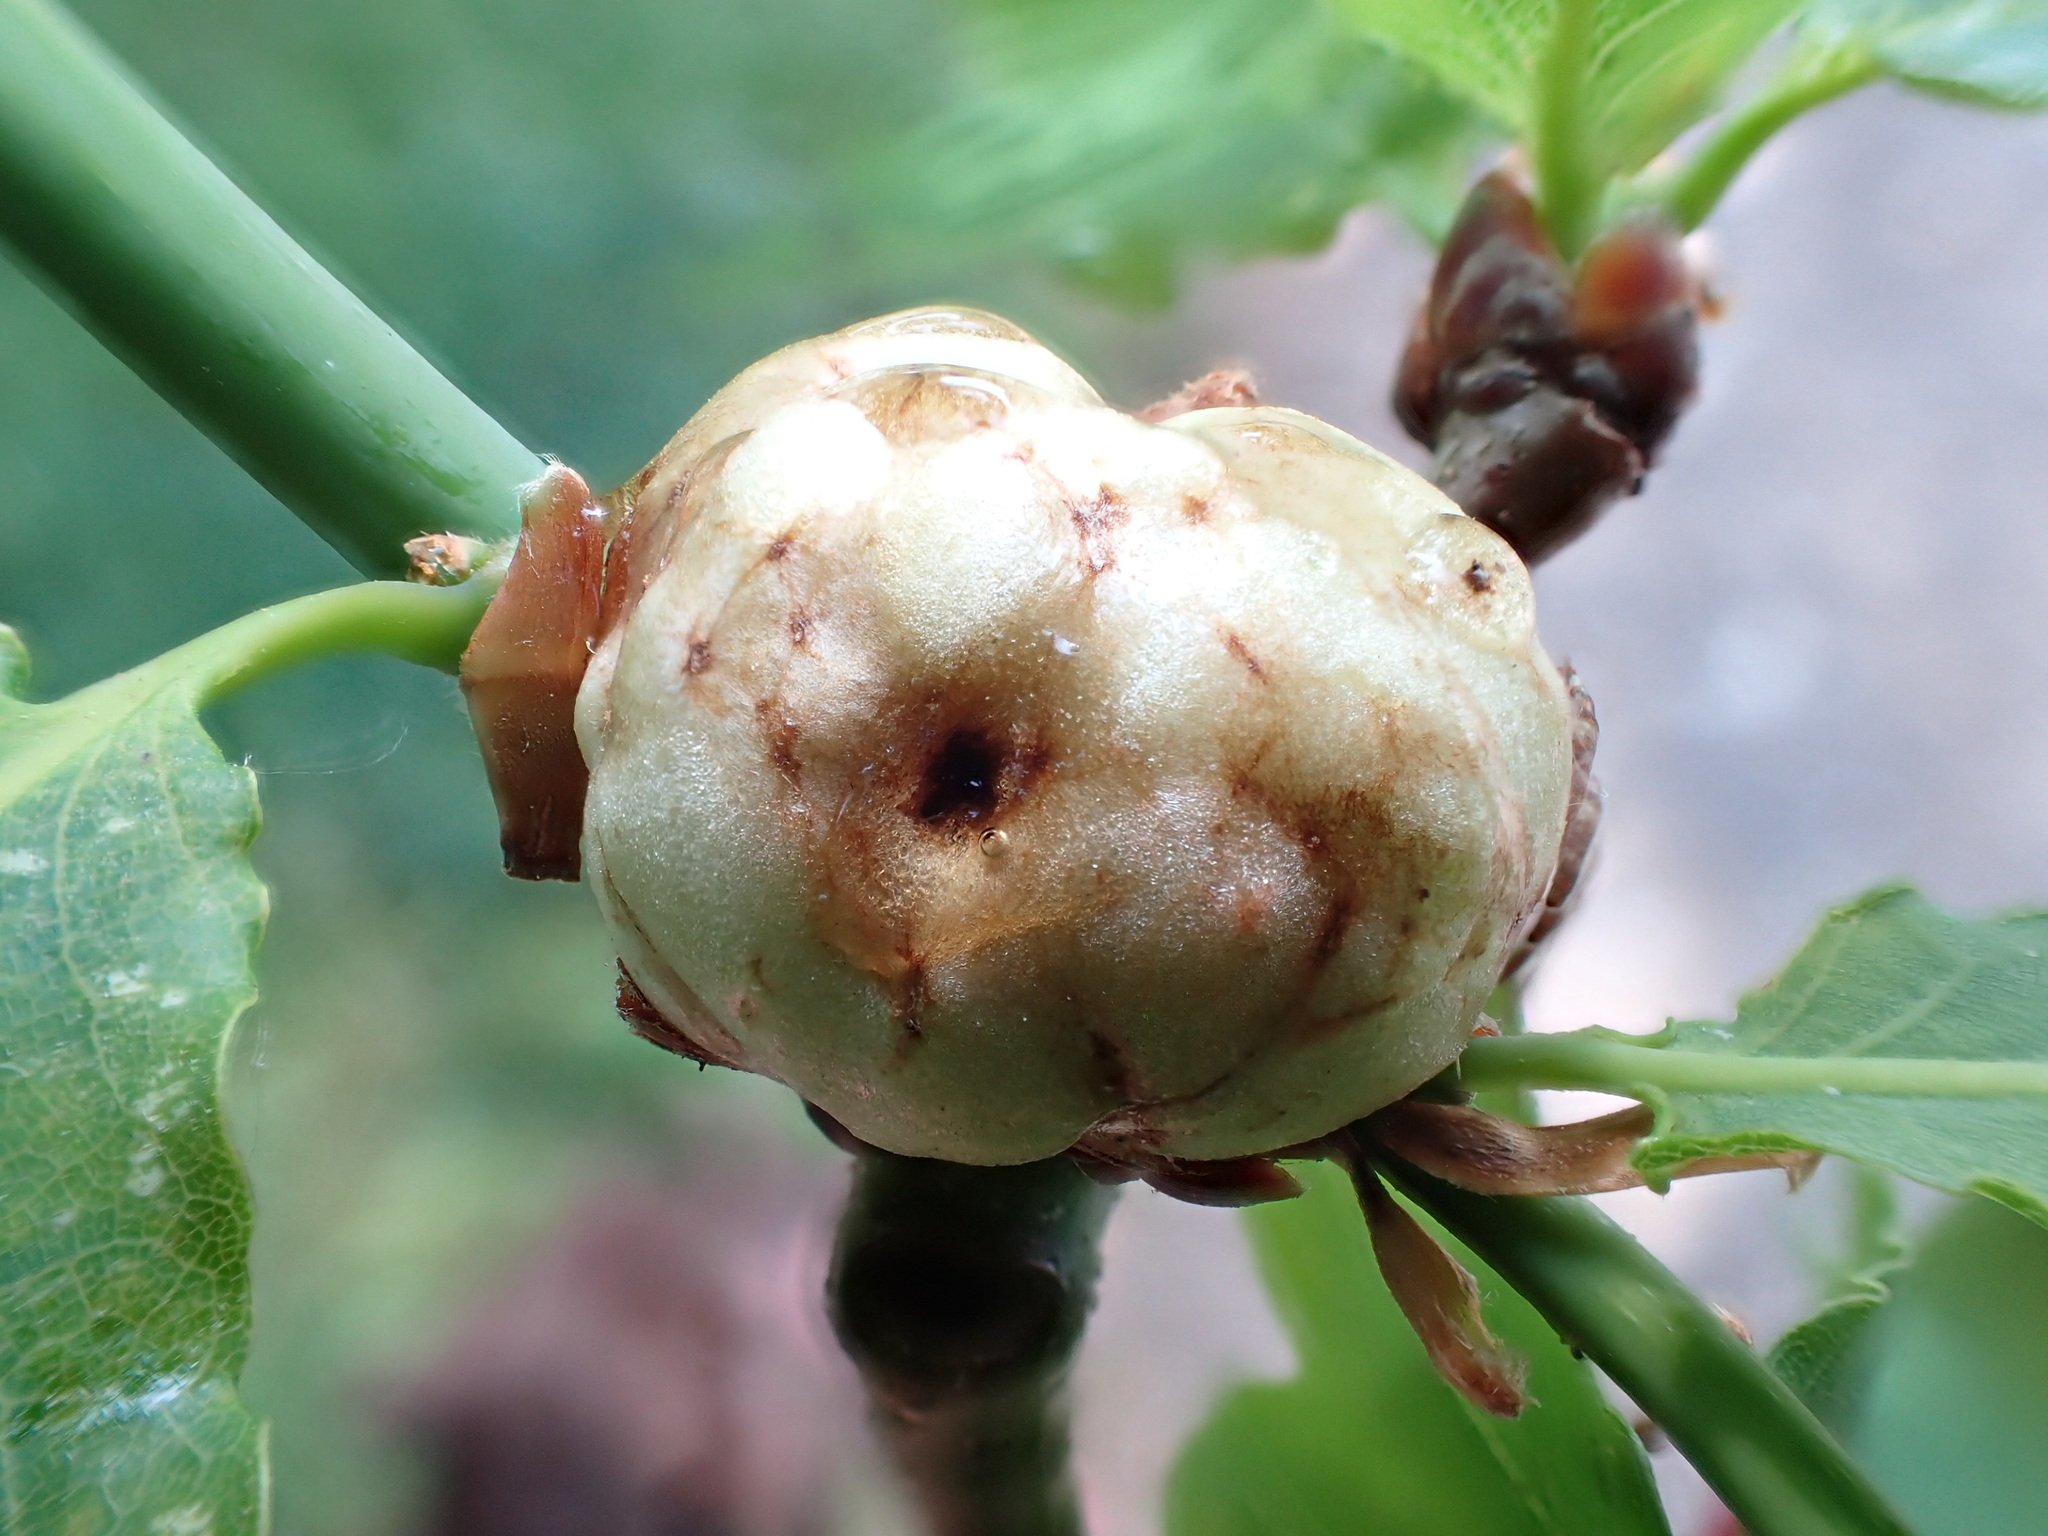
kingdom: Animalia
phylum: Arthropoda
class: Insecta
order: Hymenoptera
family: Cynipidae
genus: Biorhiza
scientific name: Biorhiza pallida
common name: Oak apple
